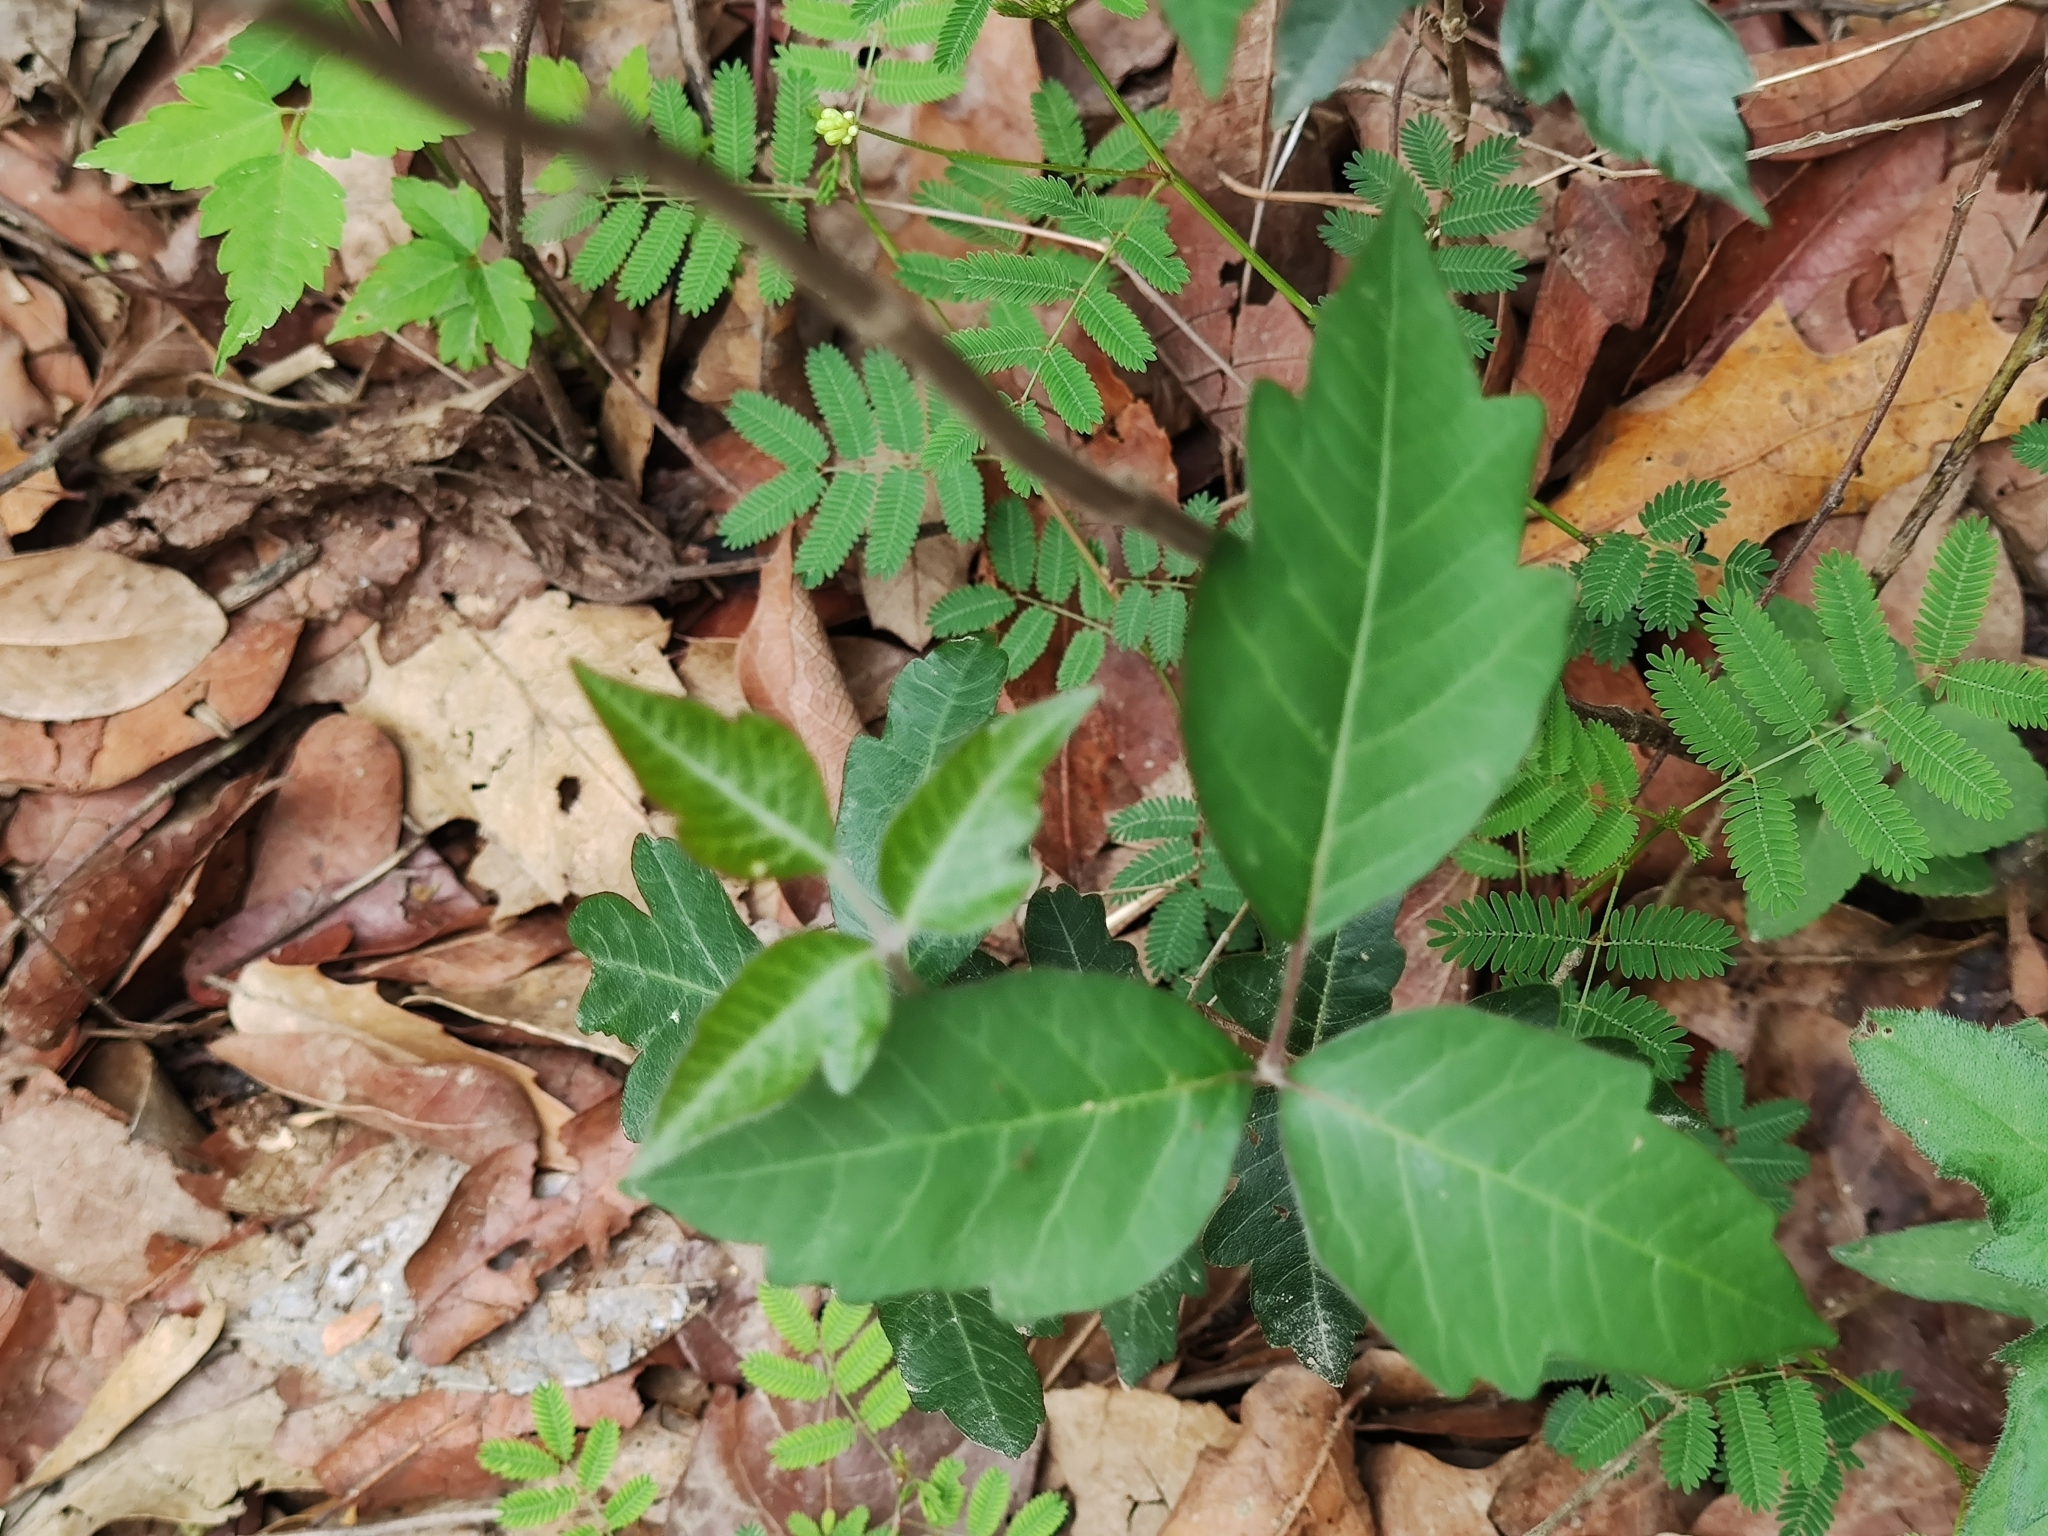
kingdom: Plantae
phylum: Tracheophyta
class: Magnoliopsida
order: Sapindales
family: Anacardiaceae
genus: Toxicodendron
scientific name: Toxicodendron pubescens
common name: Eastern poison-oak
